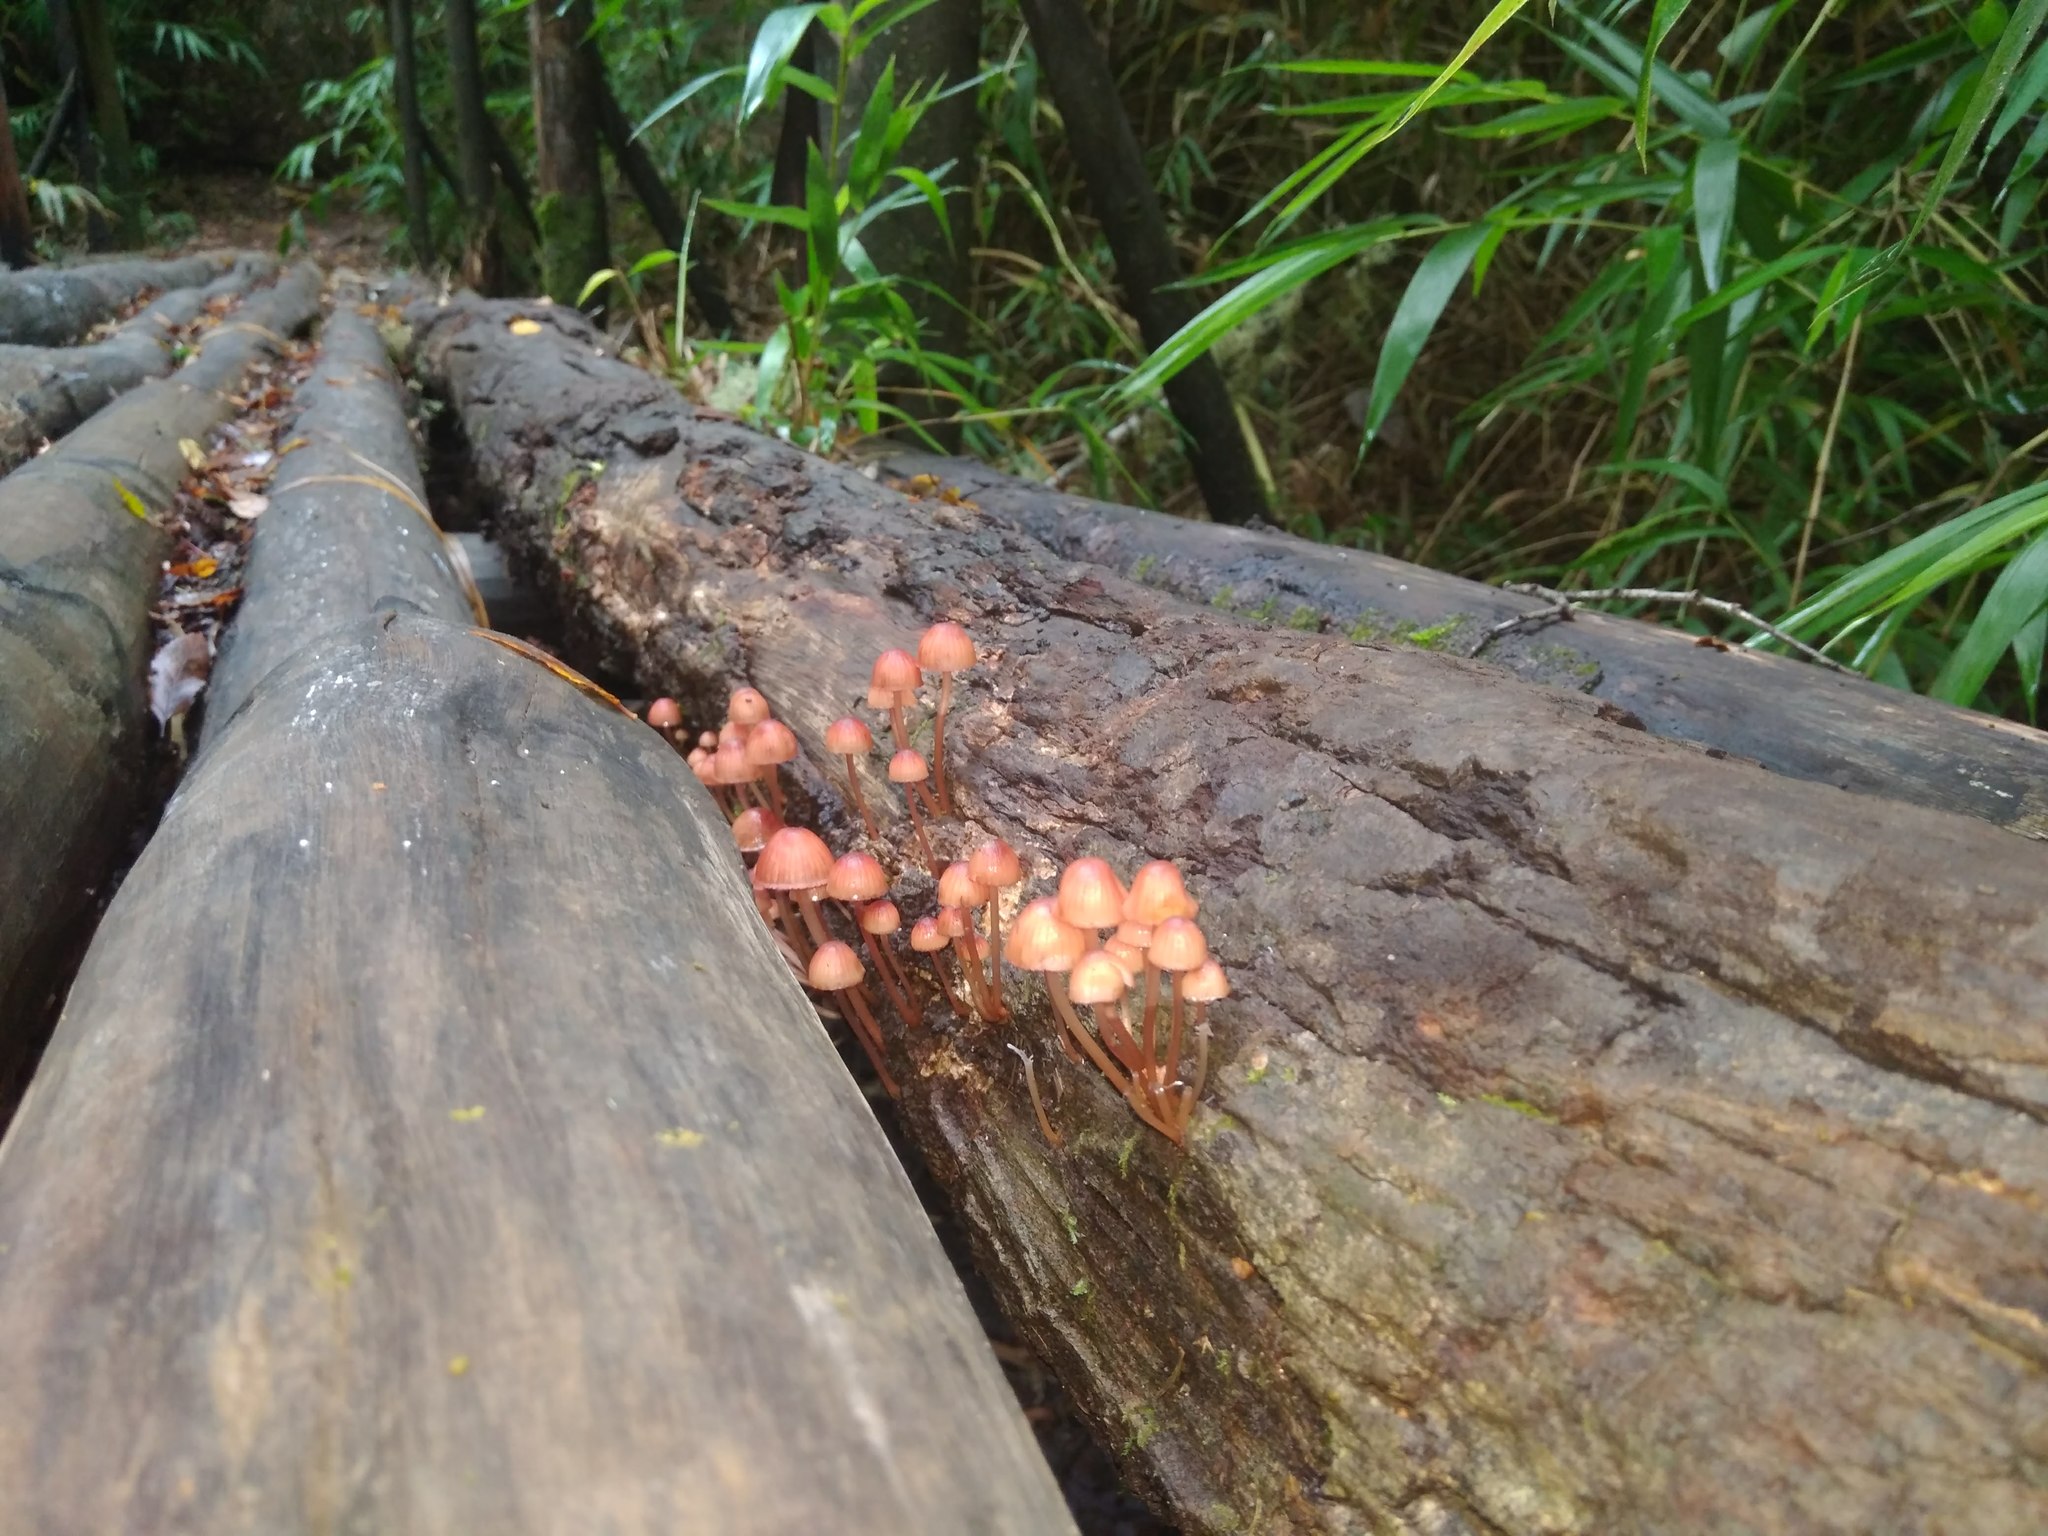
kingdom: Fungi
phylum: Basidiomycota
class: Agaricomycetes
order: Agaricales
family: Mycenaceae
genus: Mycena
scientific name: Mycena haematopus
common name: Burgundydrop bonnet
